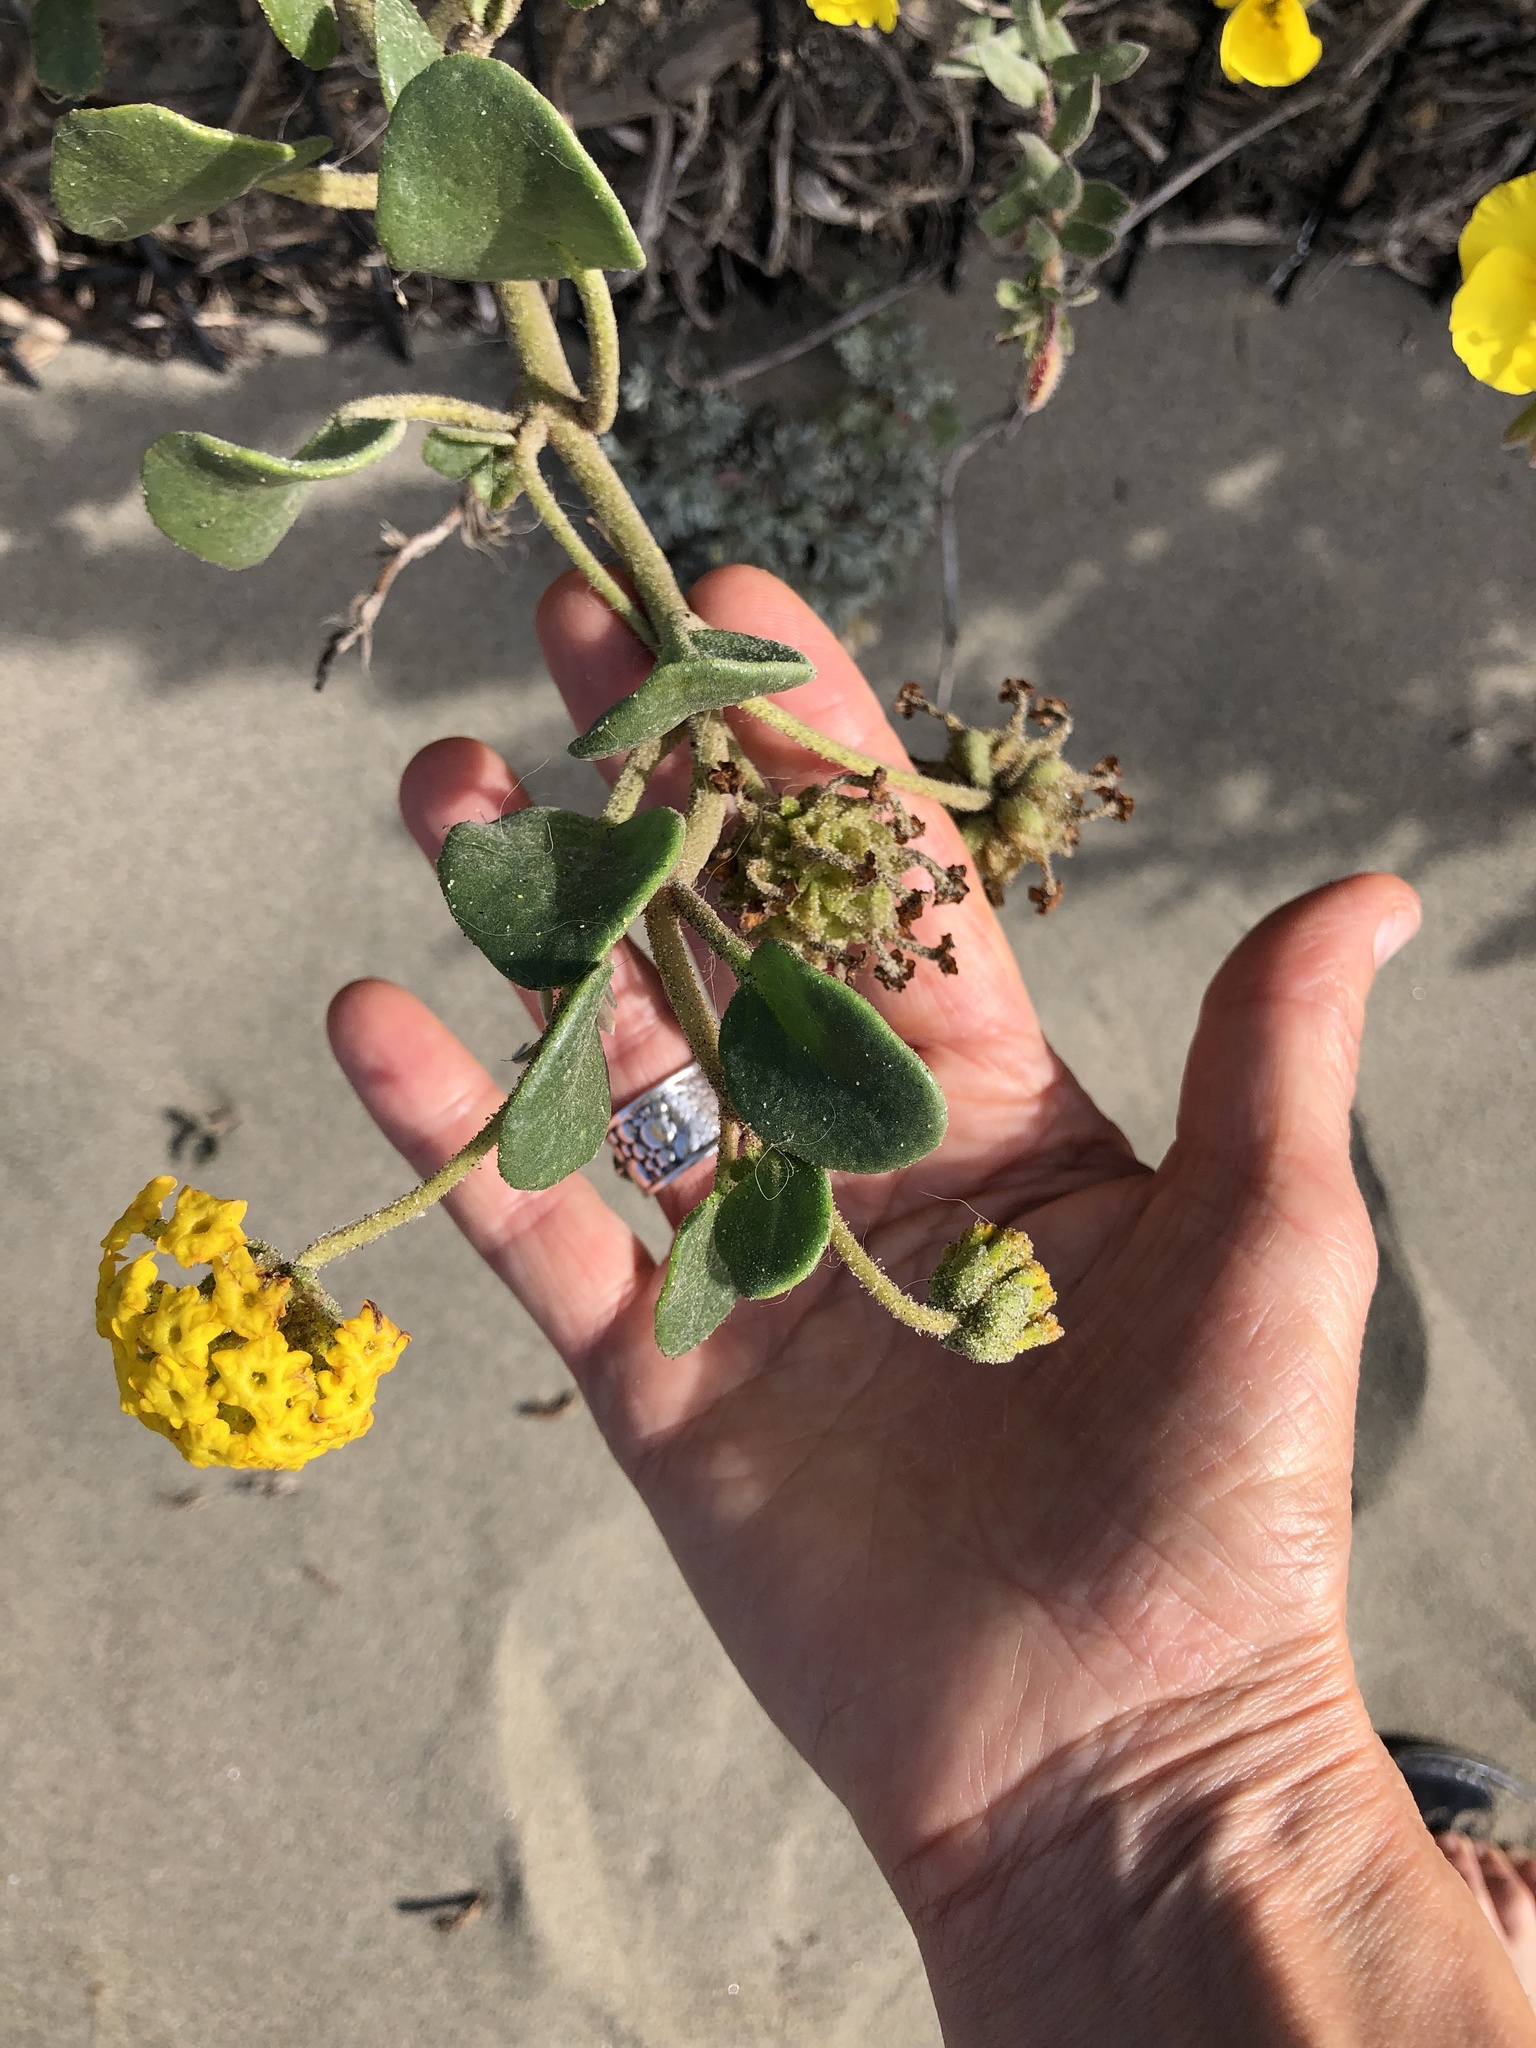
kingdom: Plantae
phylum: Tracheophyta
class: Magnoliopsida
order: Caryophyllales
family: Nyctaginaceae
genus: Abronia
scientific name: Abronia latifolia
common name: Yellow sand-verbena
